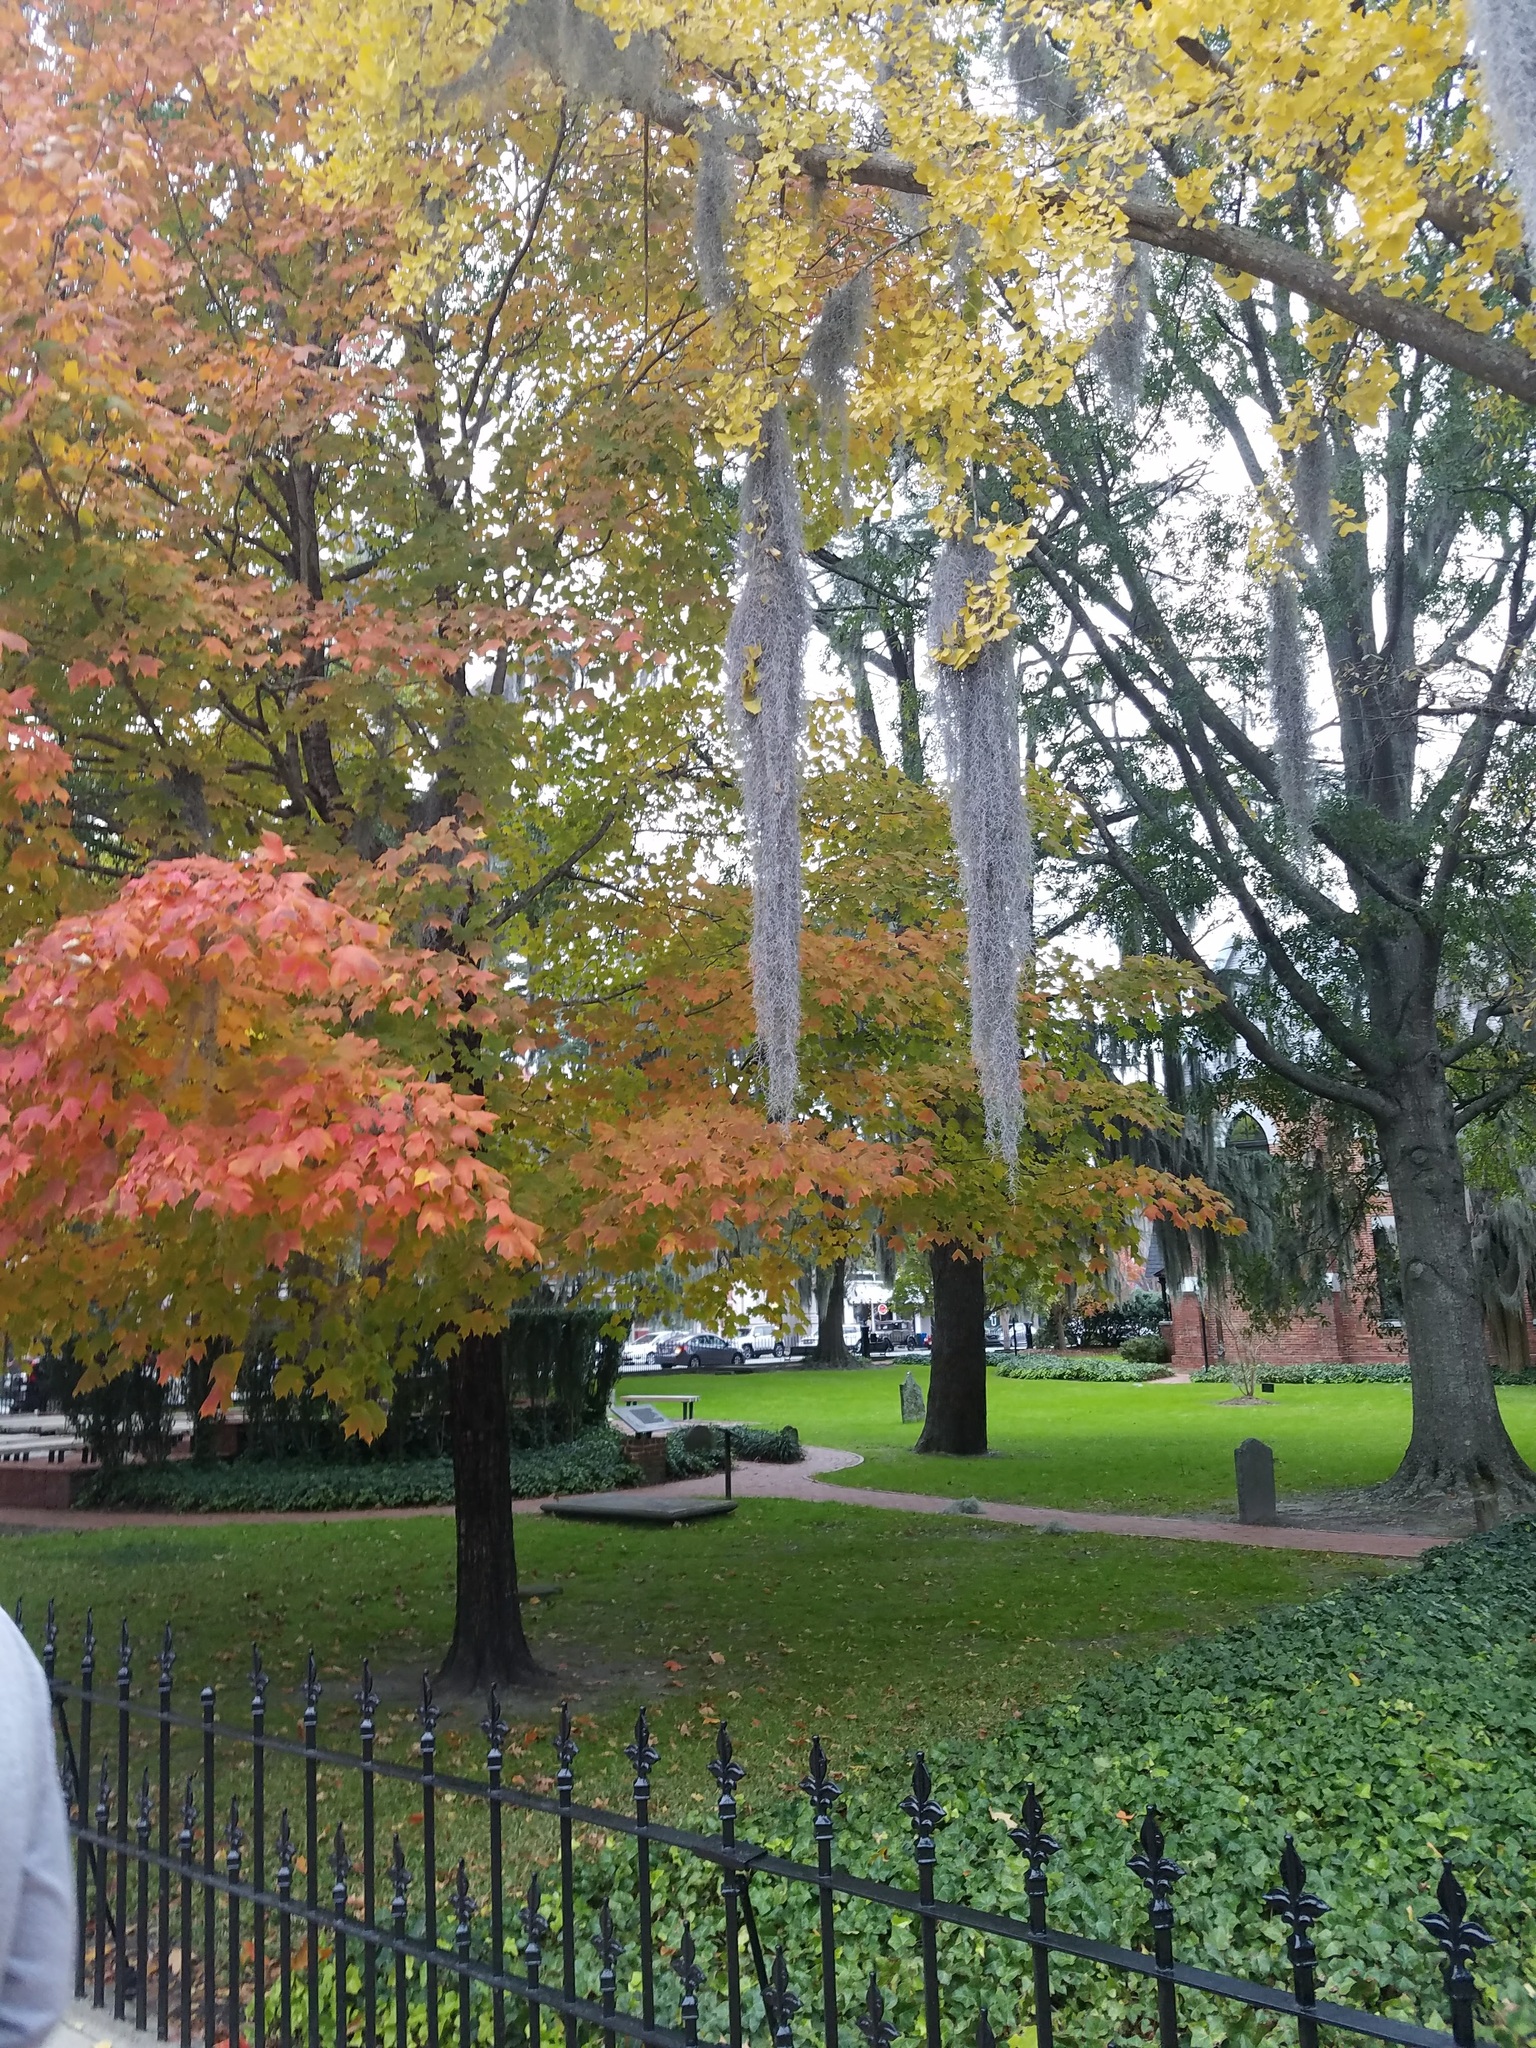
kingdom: Plantae
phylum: Tracheophyta
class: Liliopsida
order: Poales
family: Bromeliaceae
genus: Tillandsia
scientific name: Tillandsia usneoides
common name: Spanish moss
